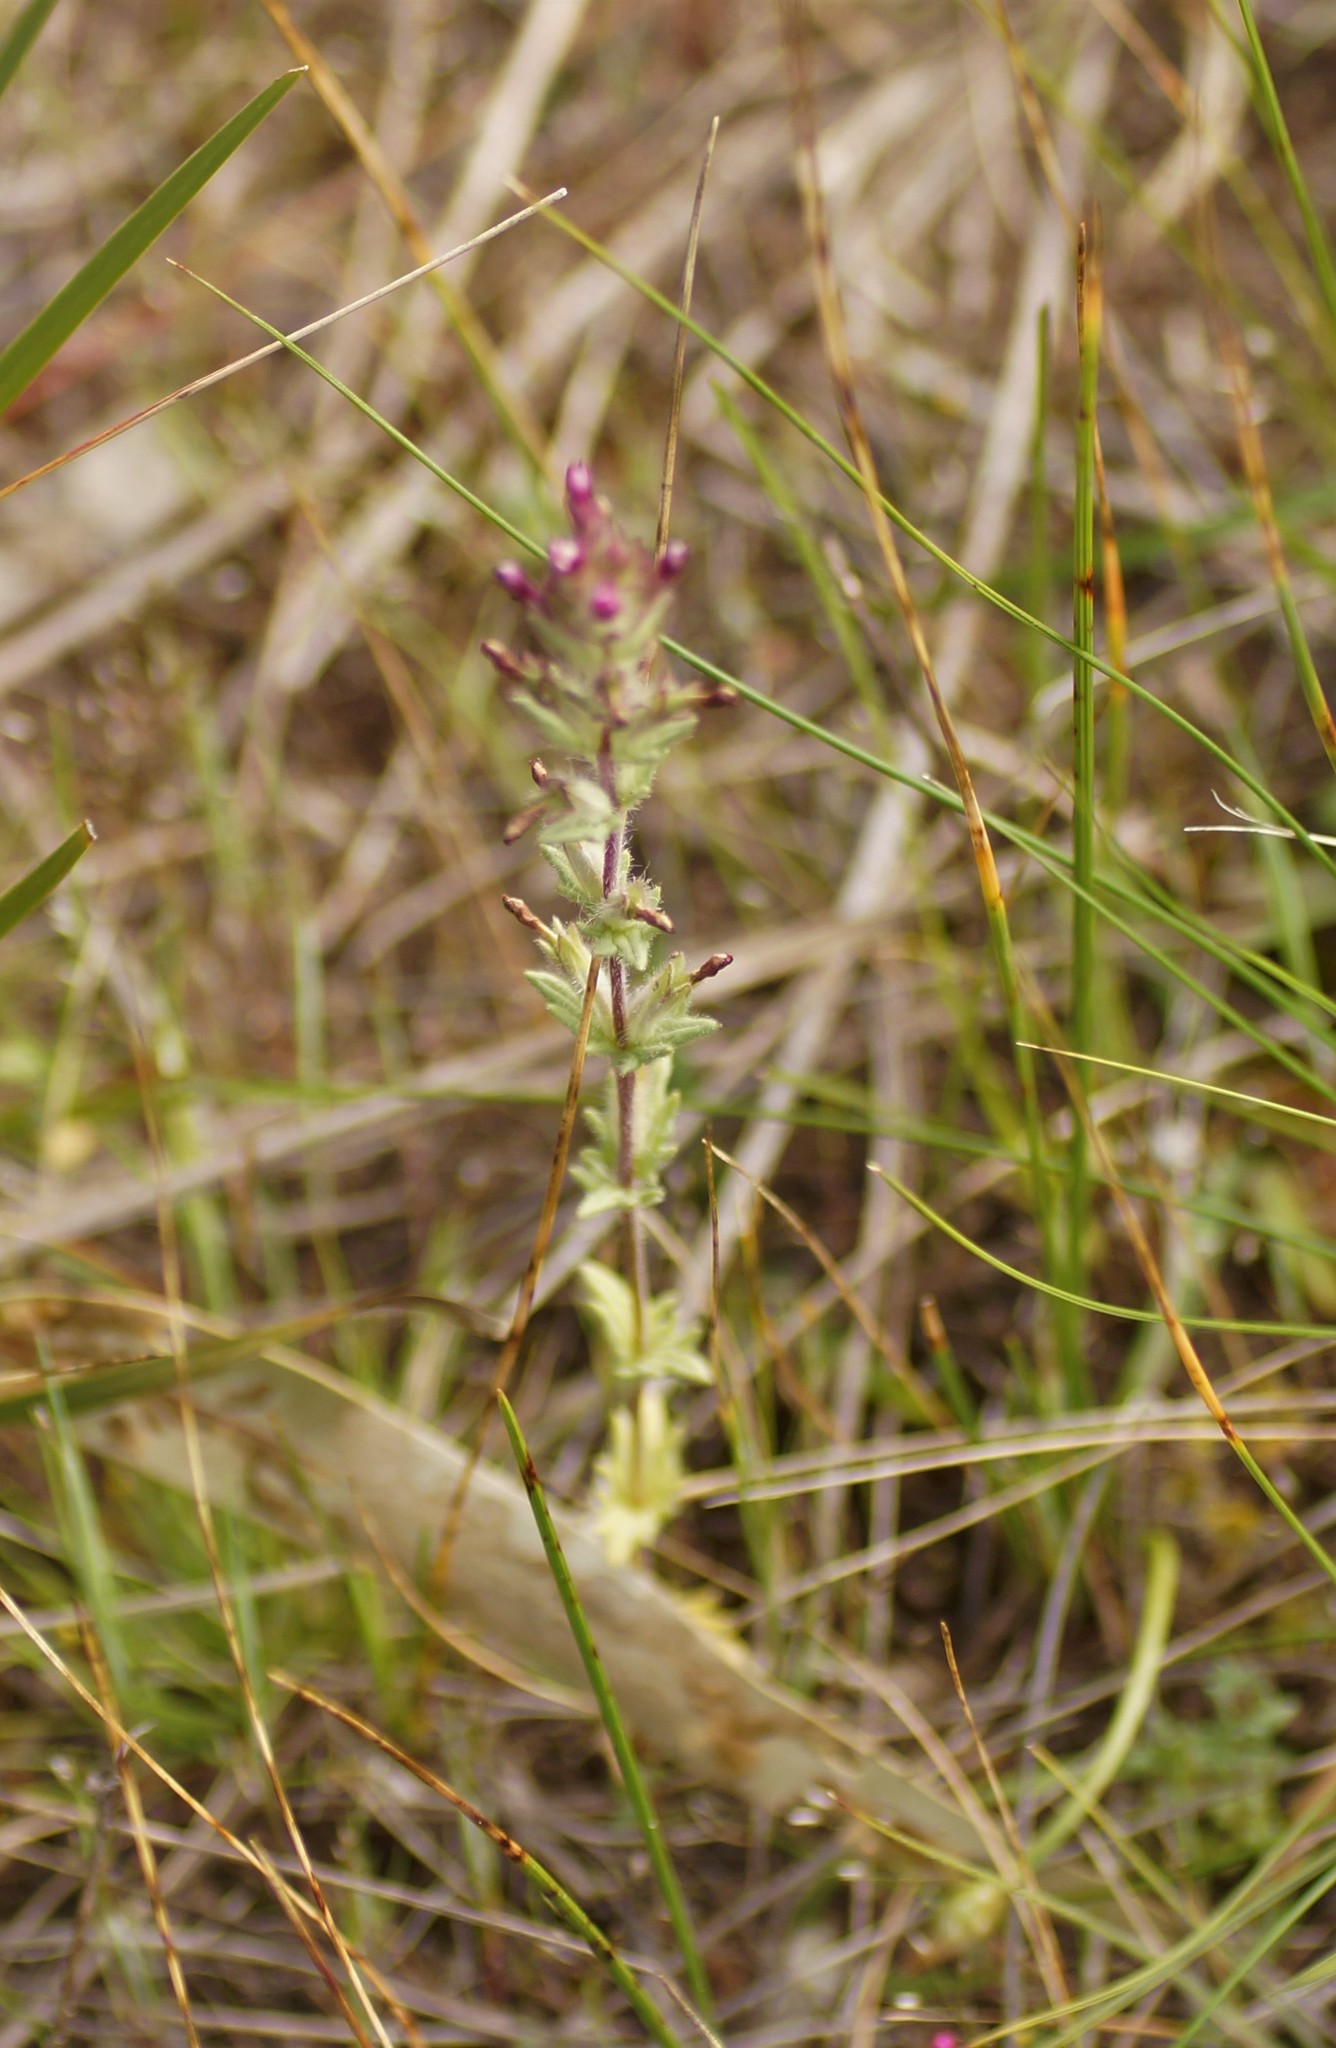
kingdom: Plantae
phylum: Tracheophyta
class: Magnoliopsida
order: Lamiales
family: Orobanchaceae
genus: Parentucellia
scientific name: Parentucellia latifolia
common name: Broadleaf glandweed
